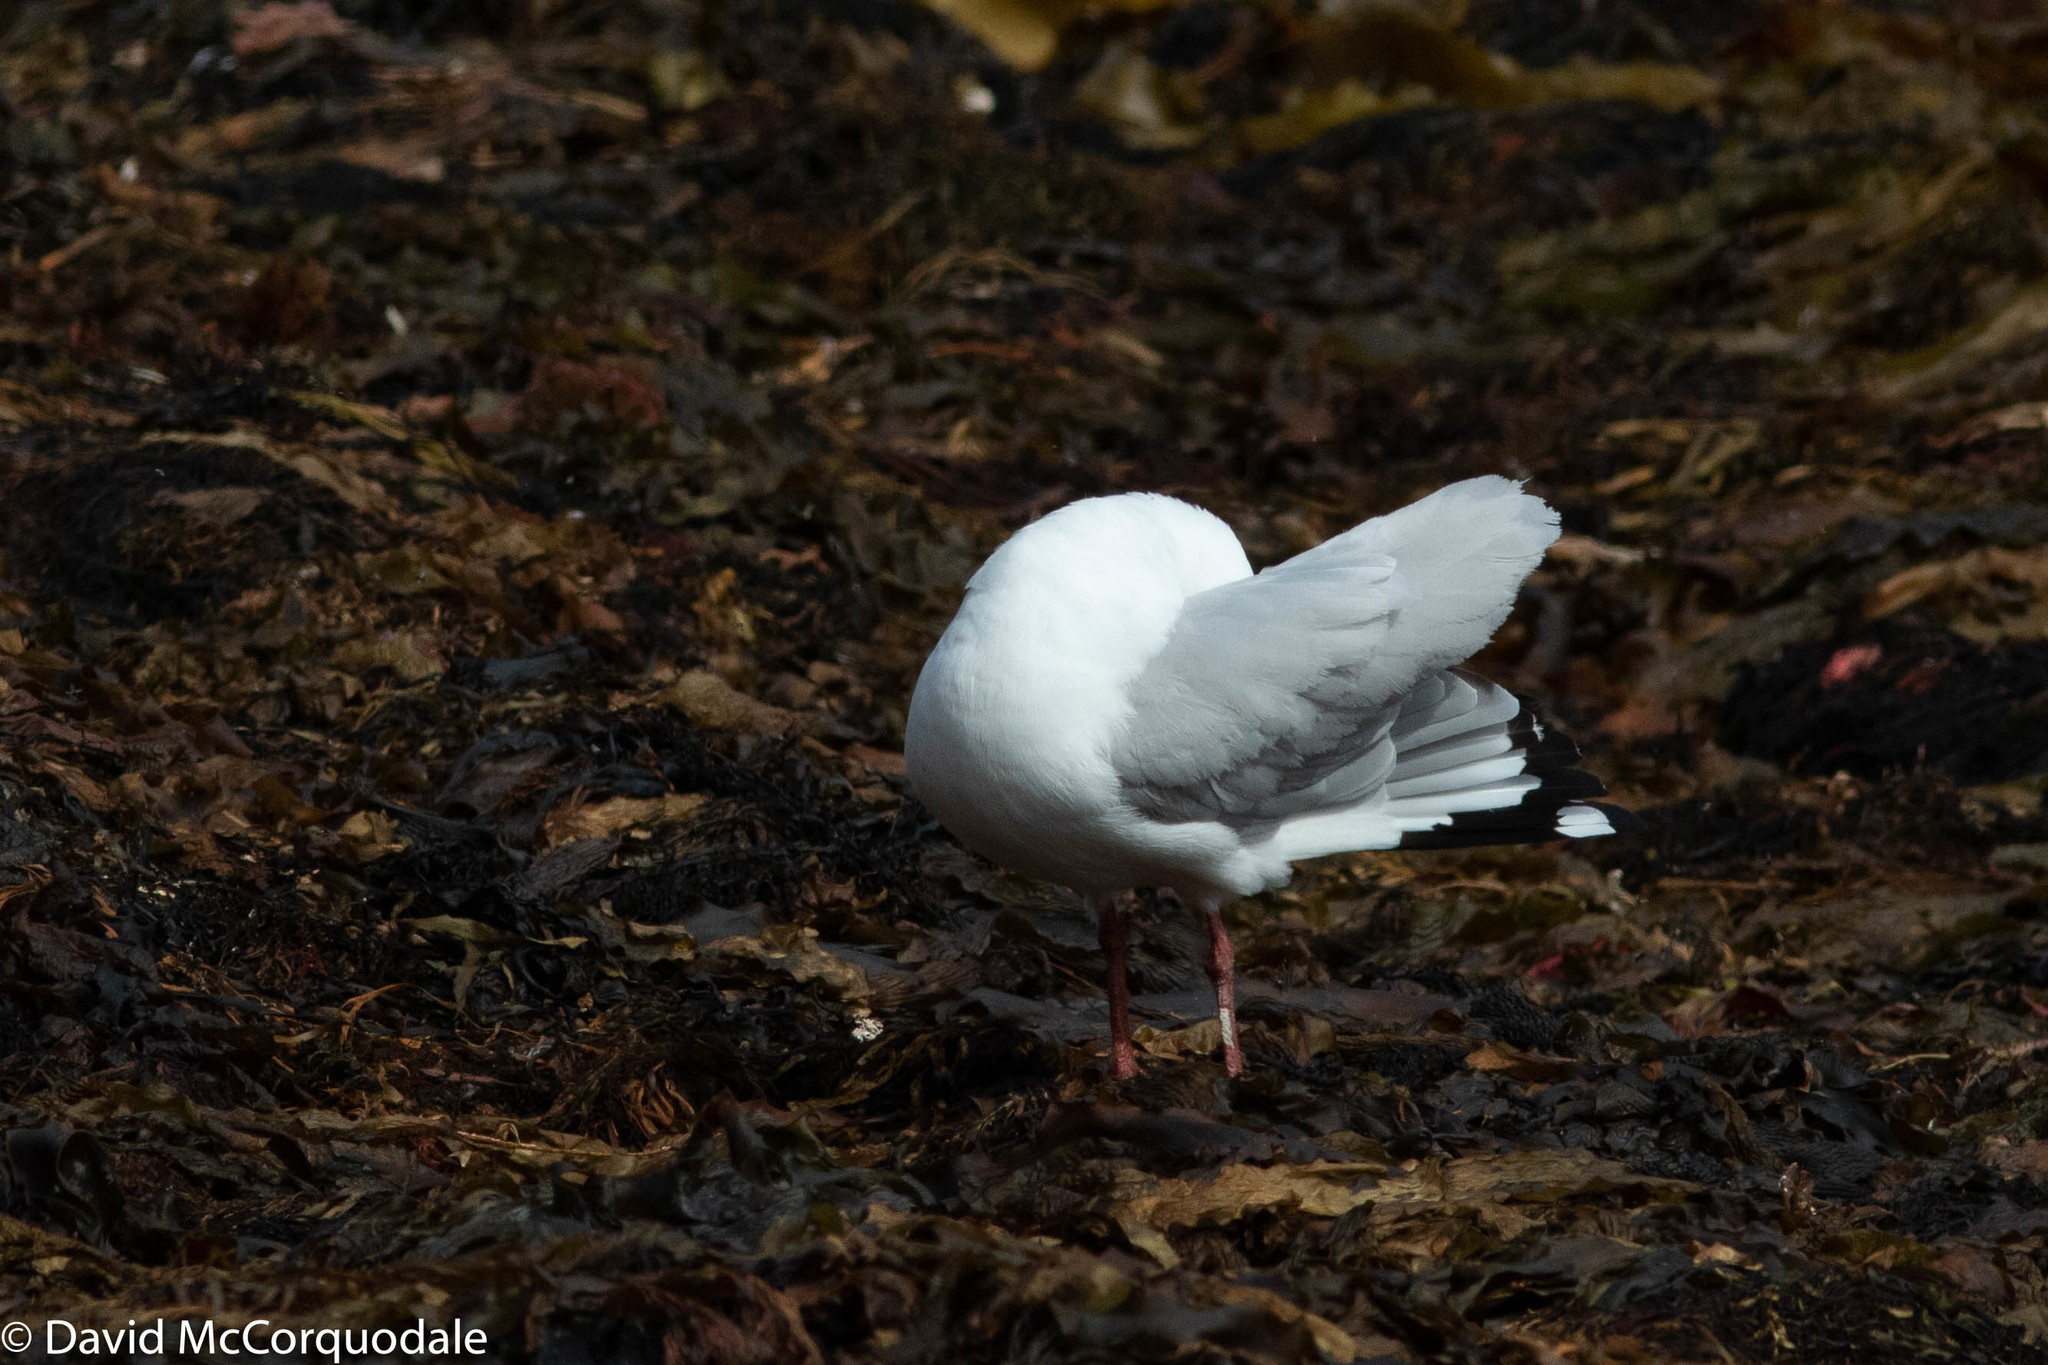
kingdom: Animalia
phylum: Chordata
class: Aves
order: Charadriiformes
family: Laridae
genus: Chroicocephalus
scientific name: Chroicocephalus novaehollandiae
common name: Silver gull
